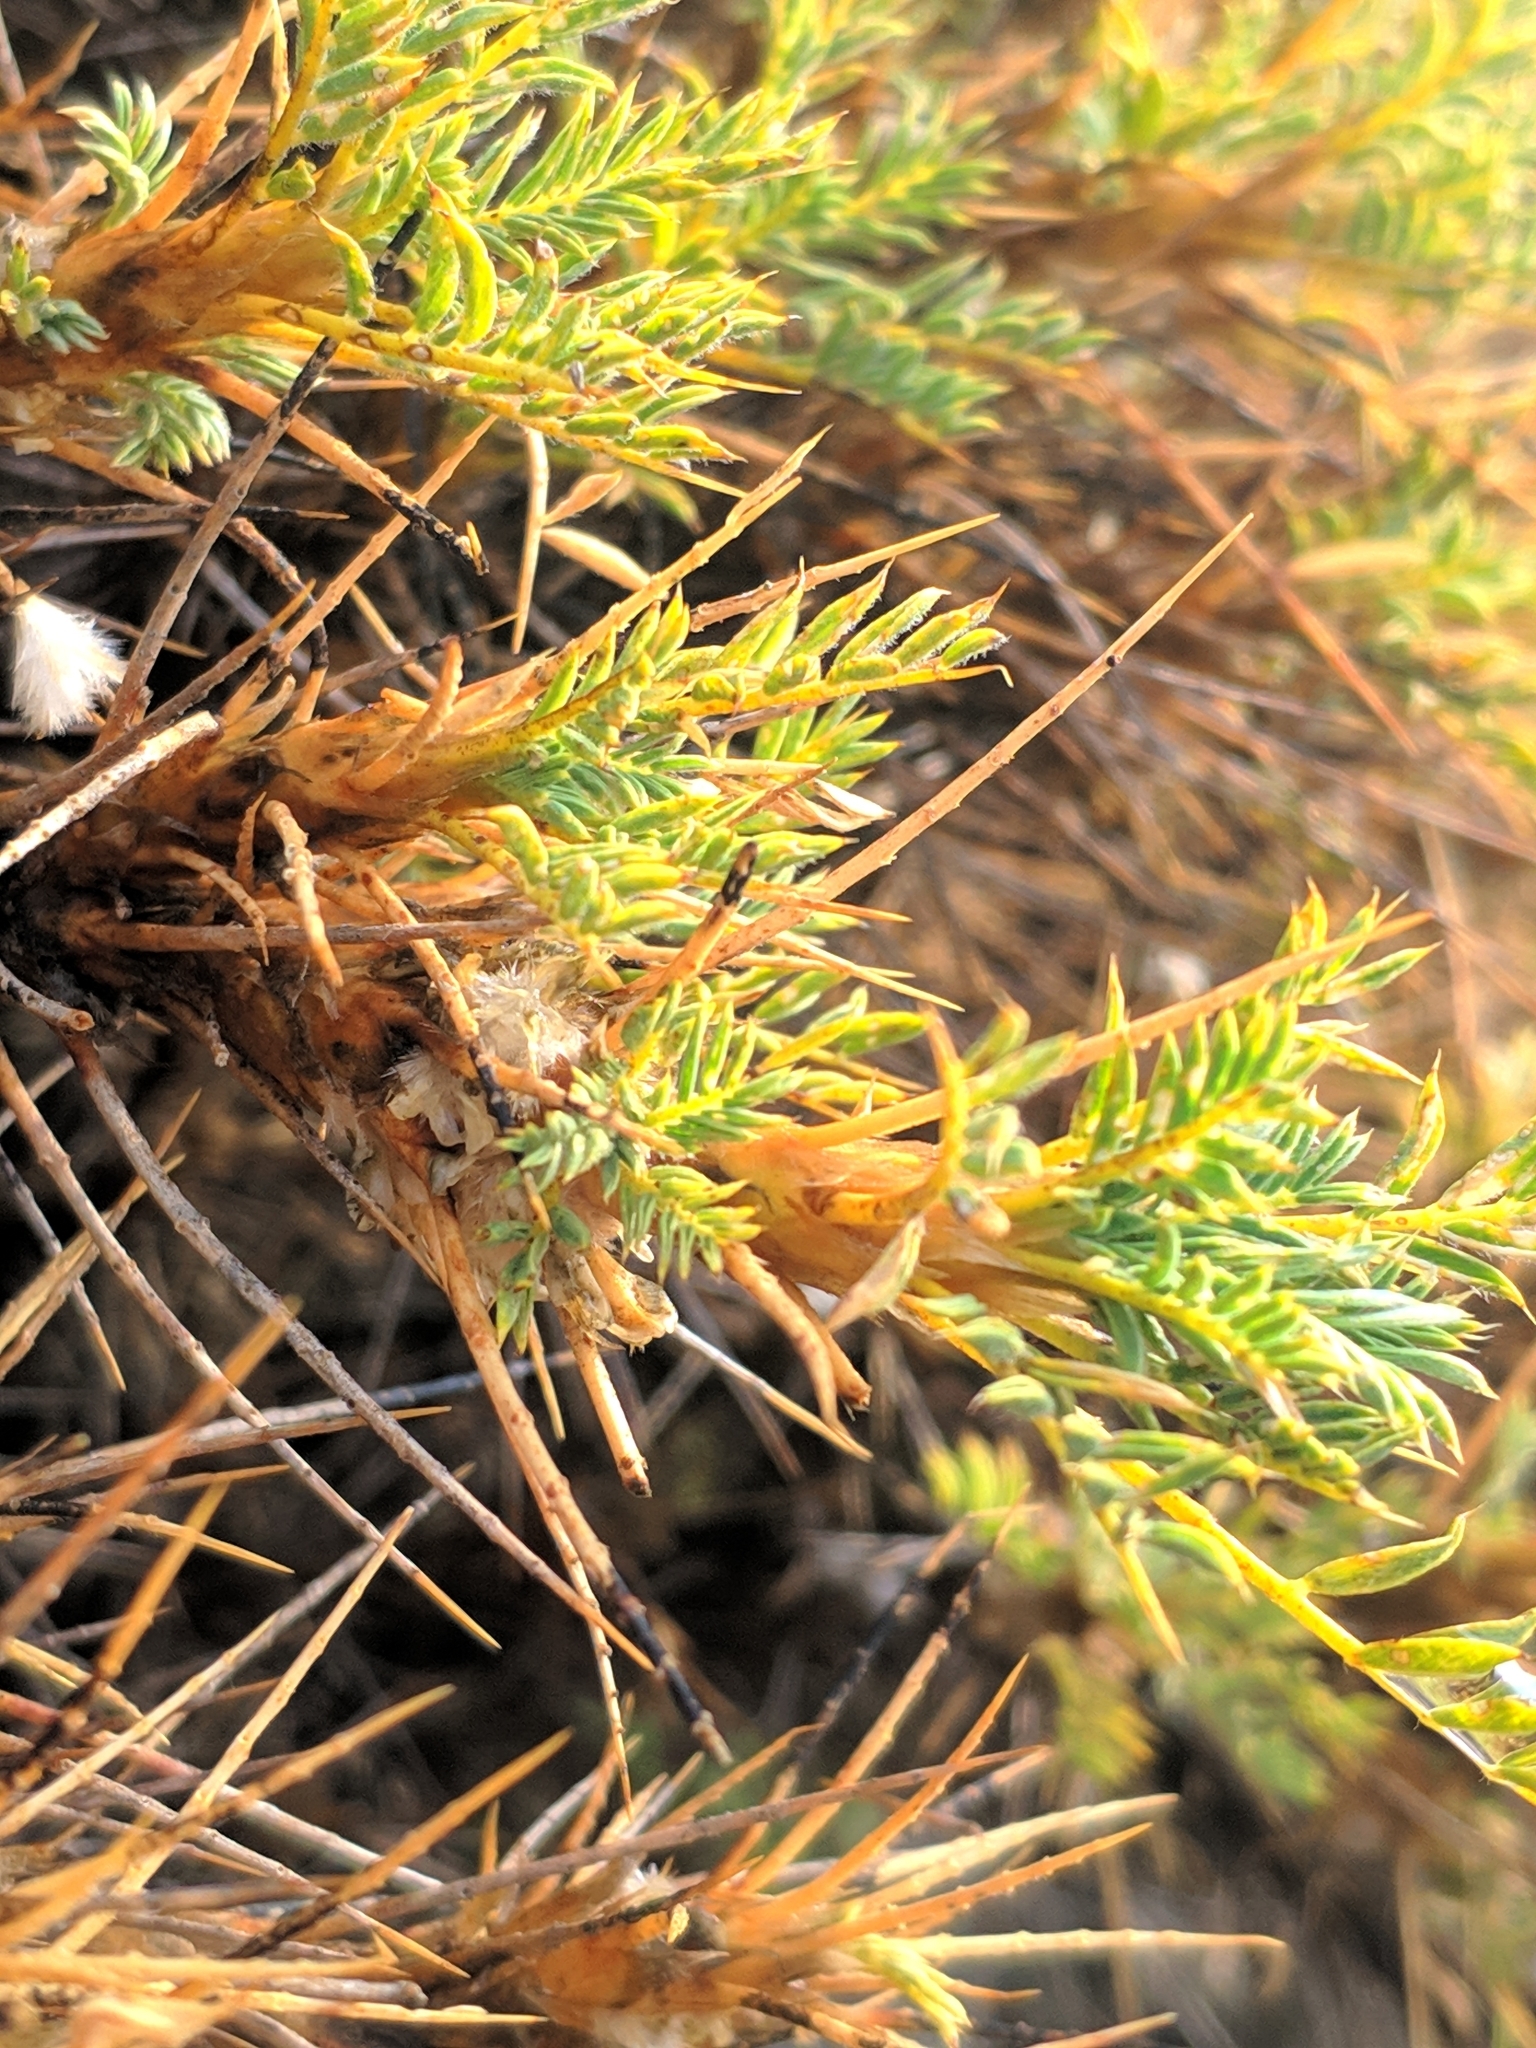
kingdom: Plantae
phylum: Tracheophyta
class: Magnoliopsida
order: Fabales
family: Fabaceae
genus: Astragalus
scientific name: Astragalus microcephalus
